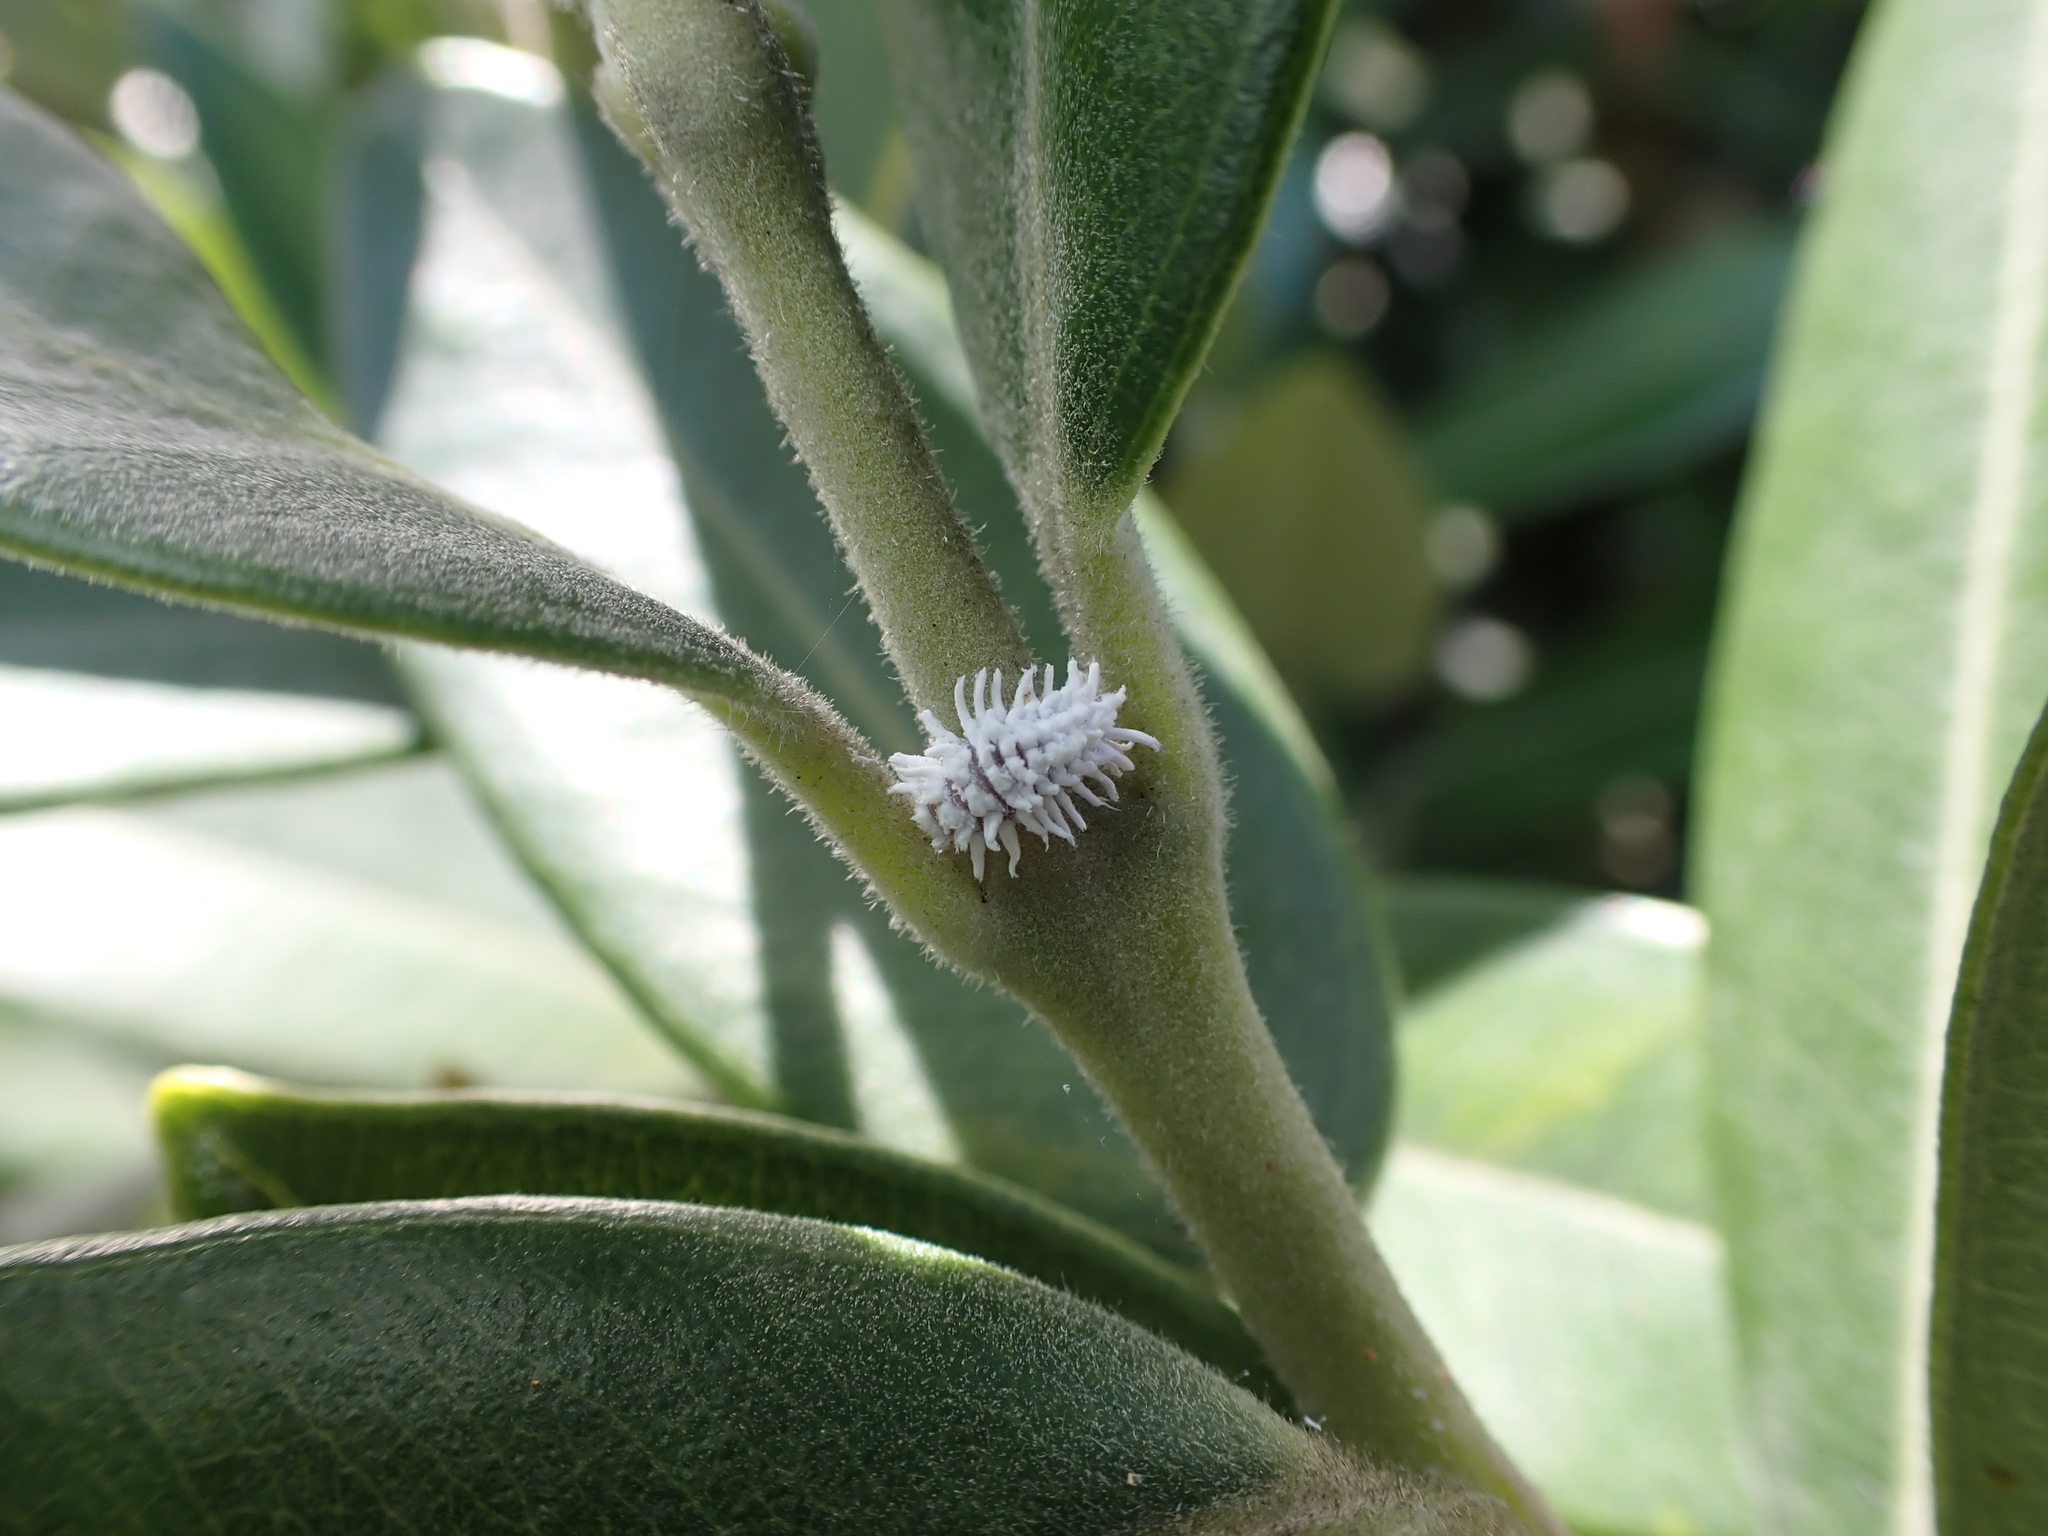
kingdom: Animalia
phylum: Arthropoda
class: Insecta
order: Coleoptera
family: Coccinellidae
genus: Cryptolaemus
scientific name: Cryptolaemus montrouzieri
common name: Mealybug destroyer
